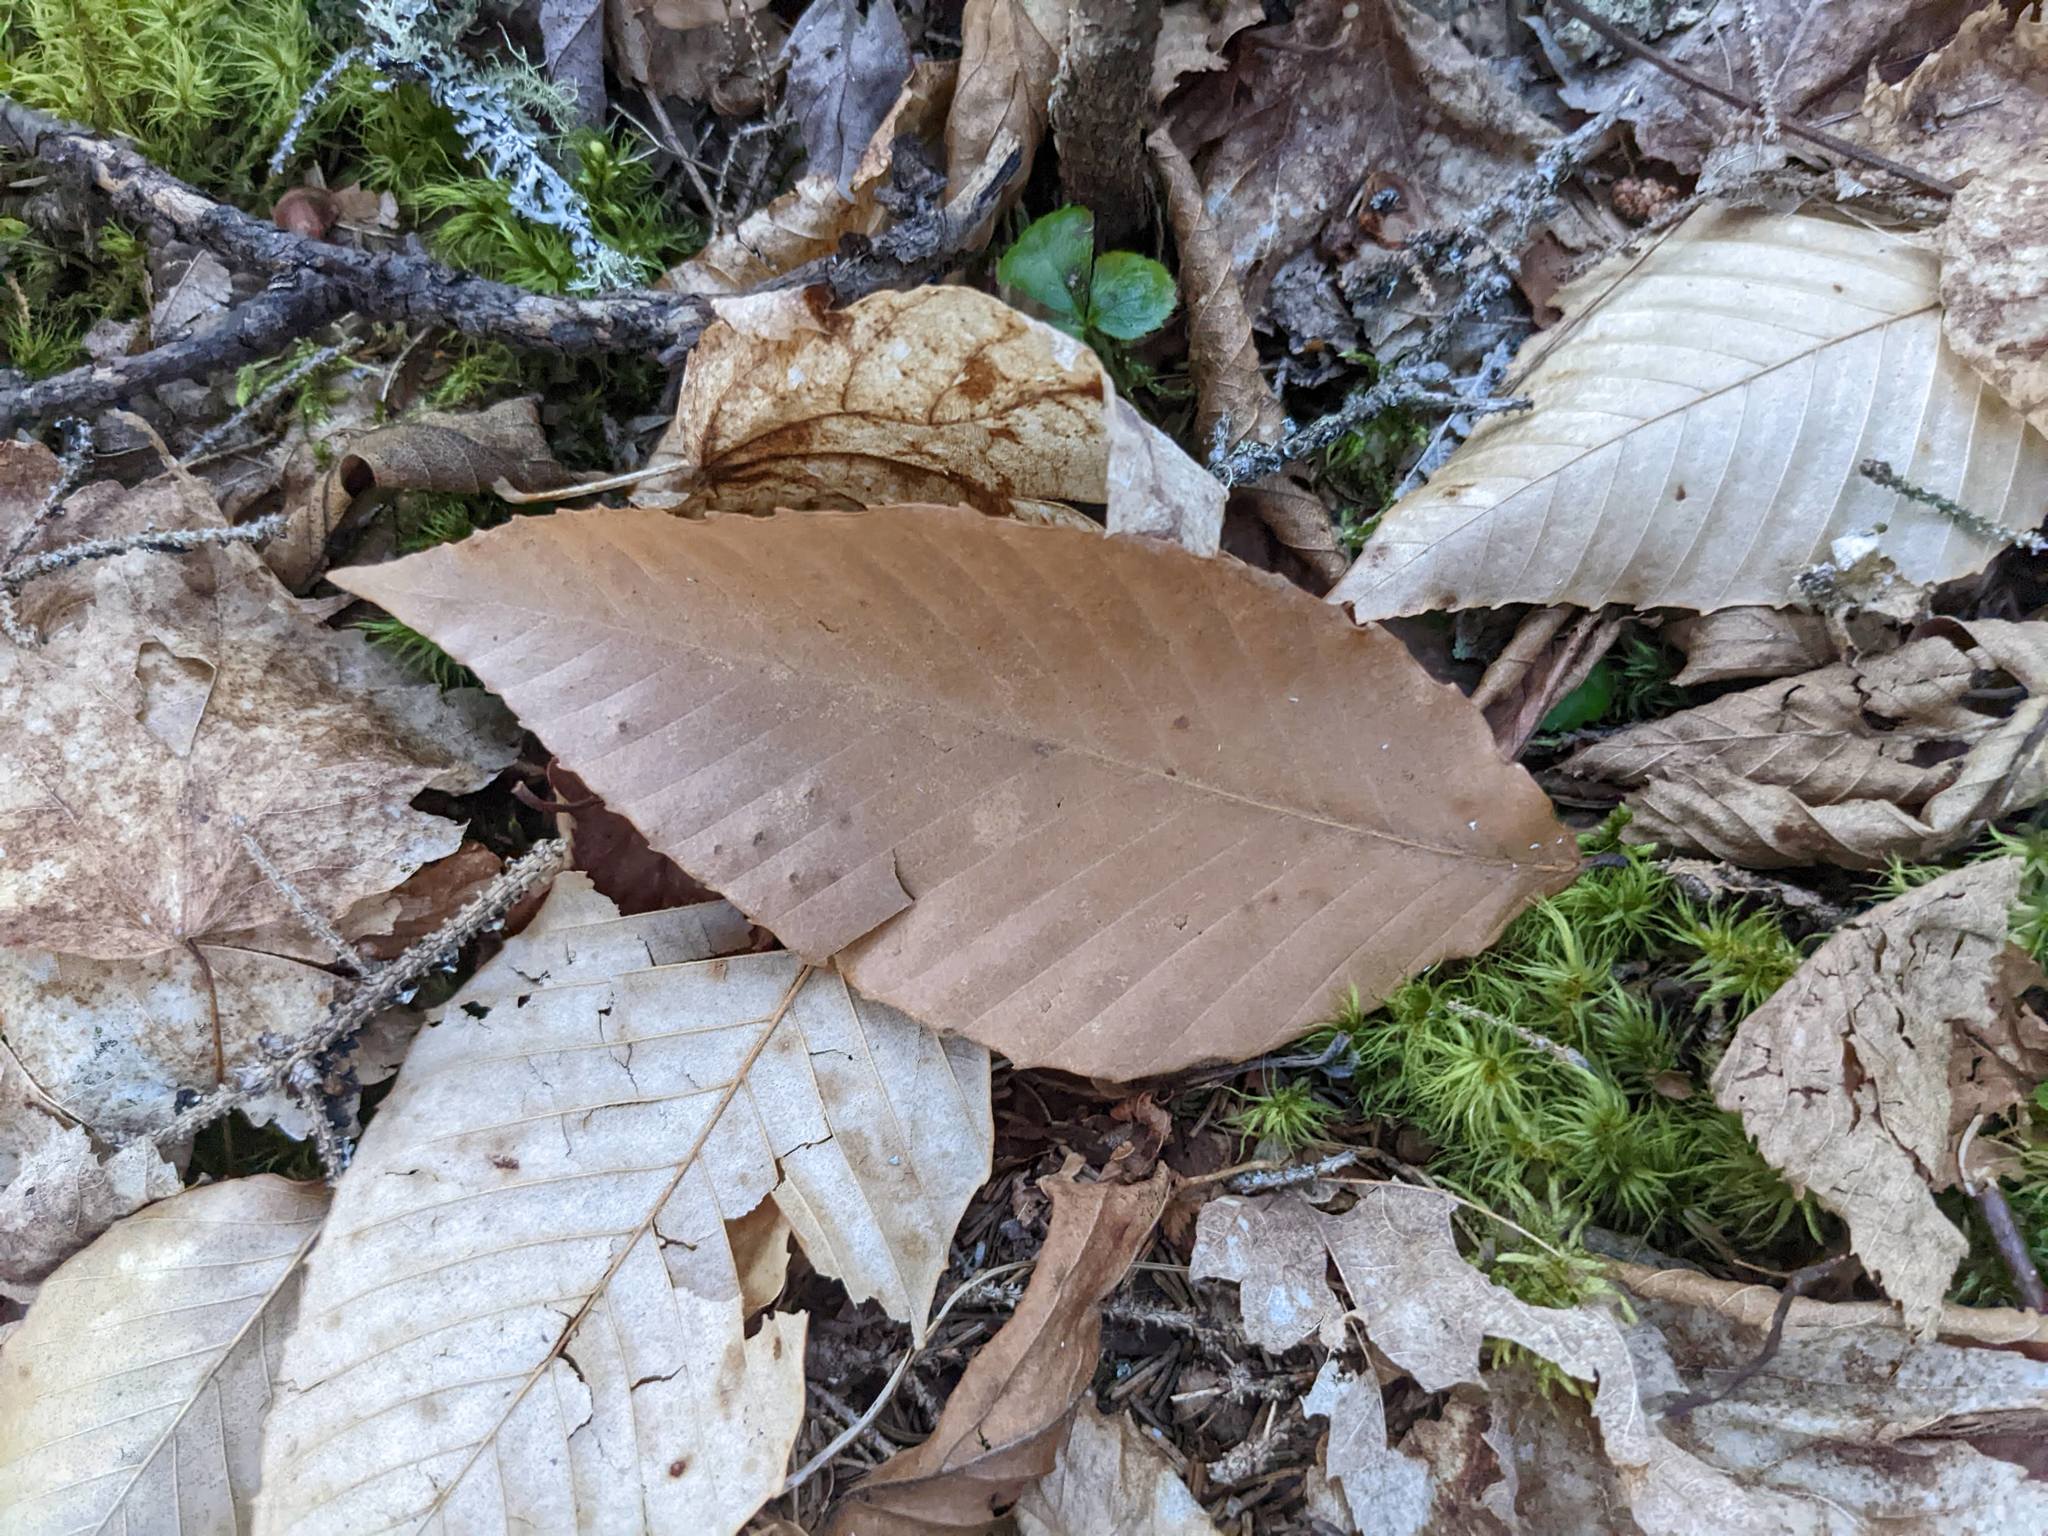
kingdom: Plantae
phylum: Tracheophyta
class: Magnoliopsida
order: Fagales
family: Fagaceae
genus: Fagus
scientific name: Fagus grandifolia
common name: American beech
